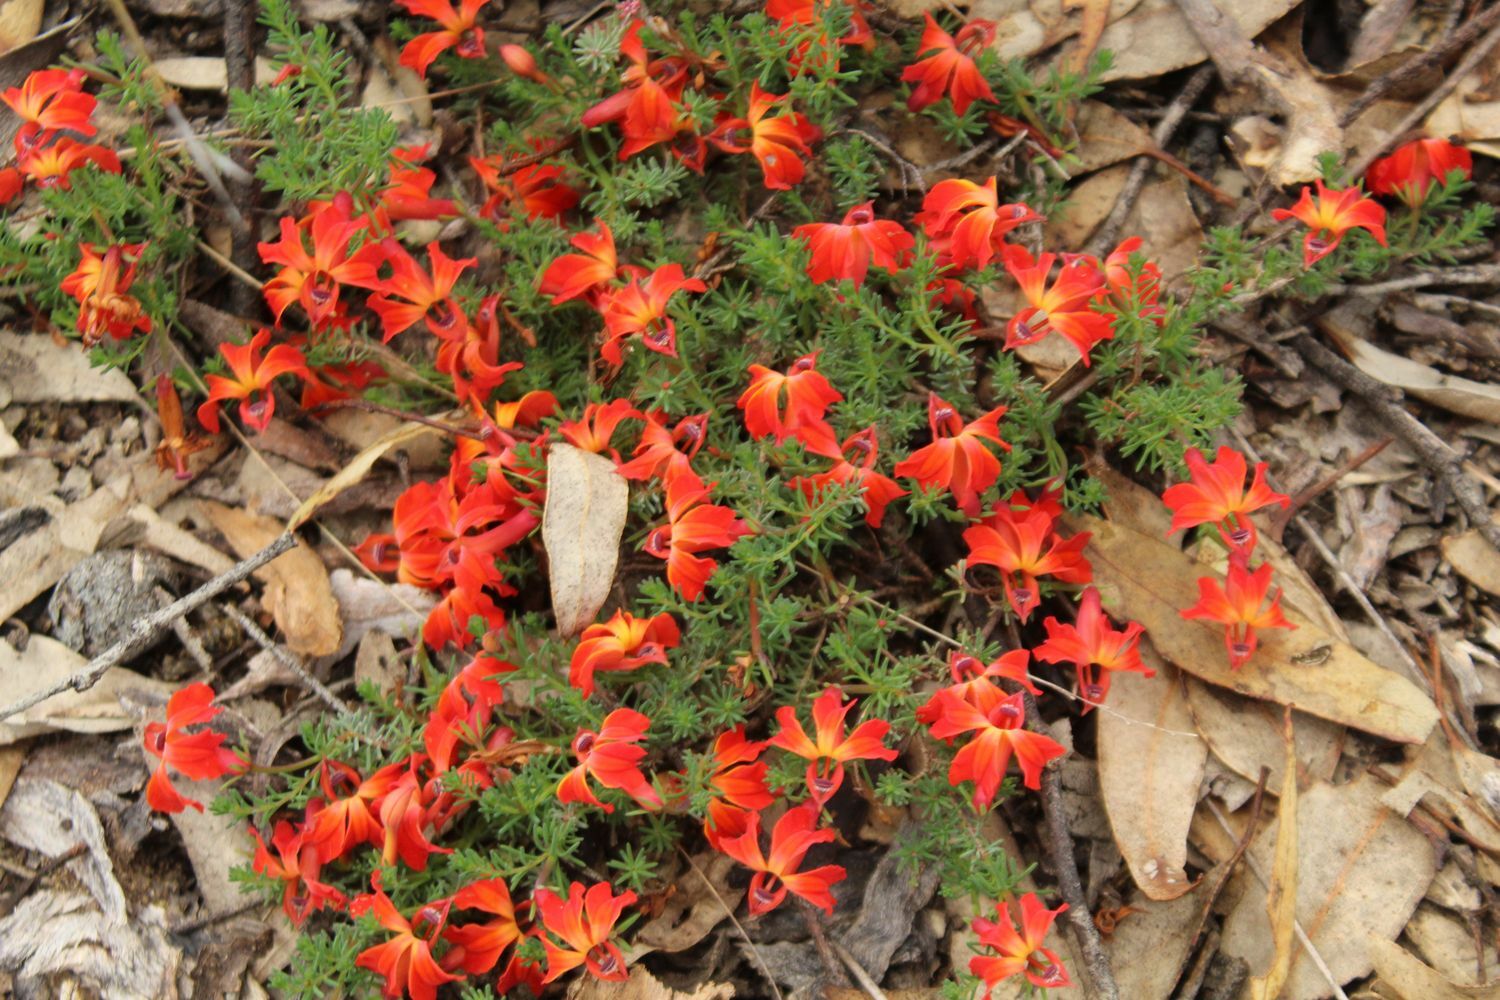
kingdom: Plantae
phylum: Tracheophyta
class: Magnoliopsida
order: Asterales
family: Goodeniaceae
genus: Lechenaultia
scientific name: Lechenaultia formosa
